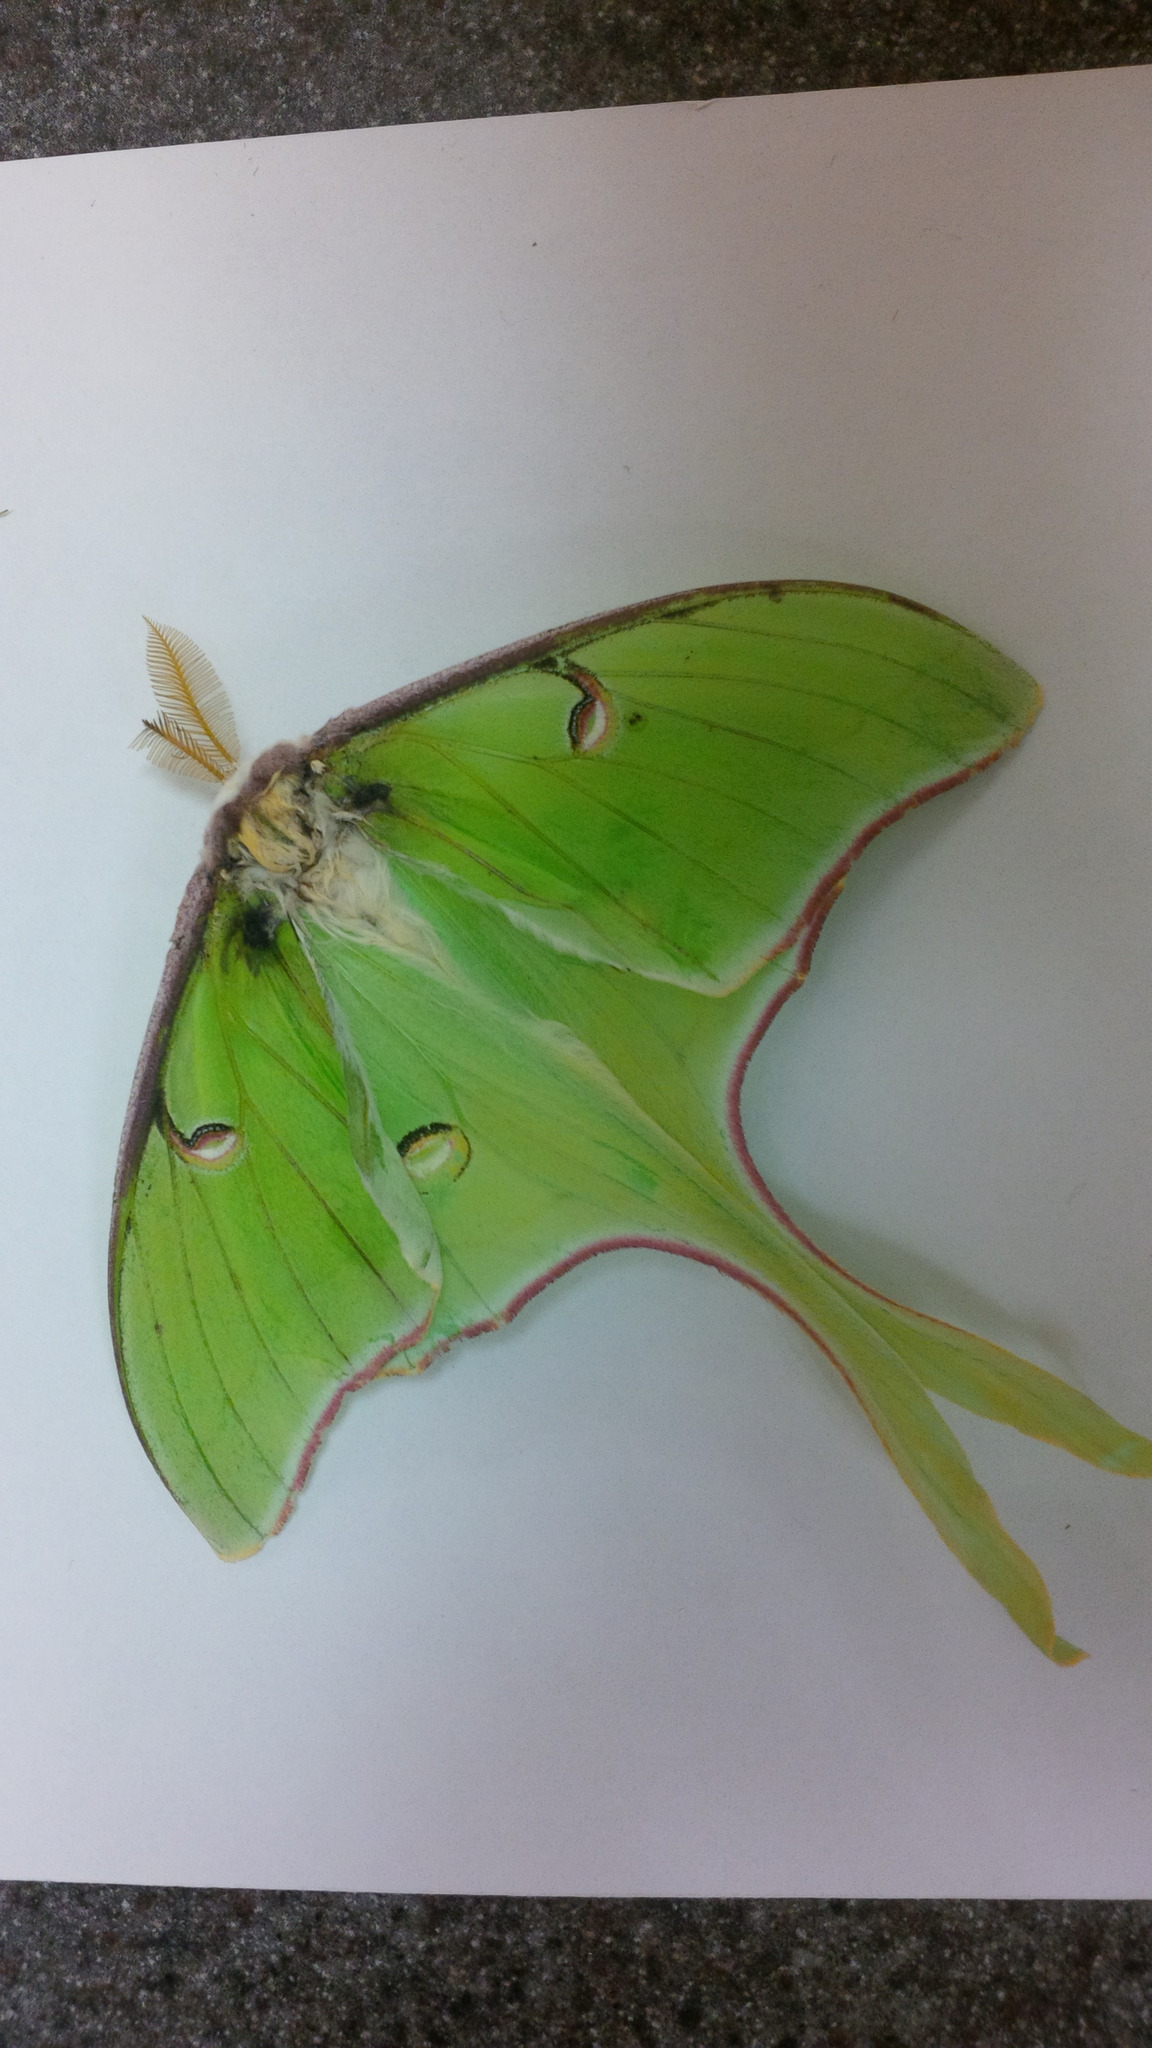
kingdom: Animalia
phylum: Arthropoda
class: Insecta
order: Lepidoptera
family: Saturniidae
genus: Actias
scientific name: Actias luna
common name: Luna moth
